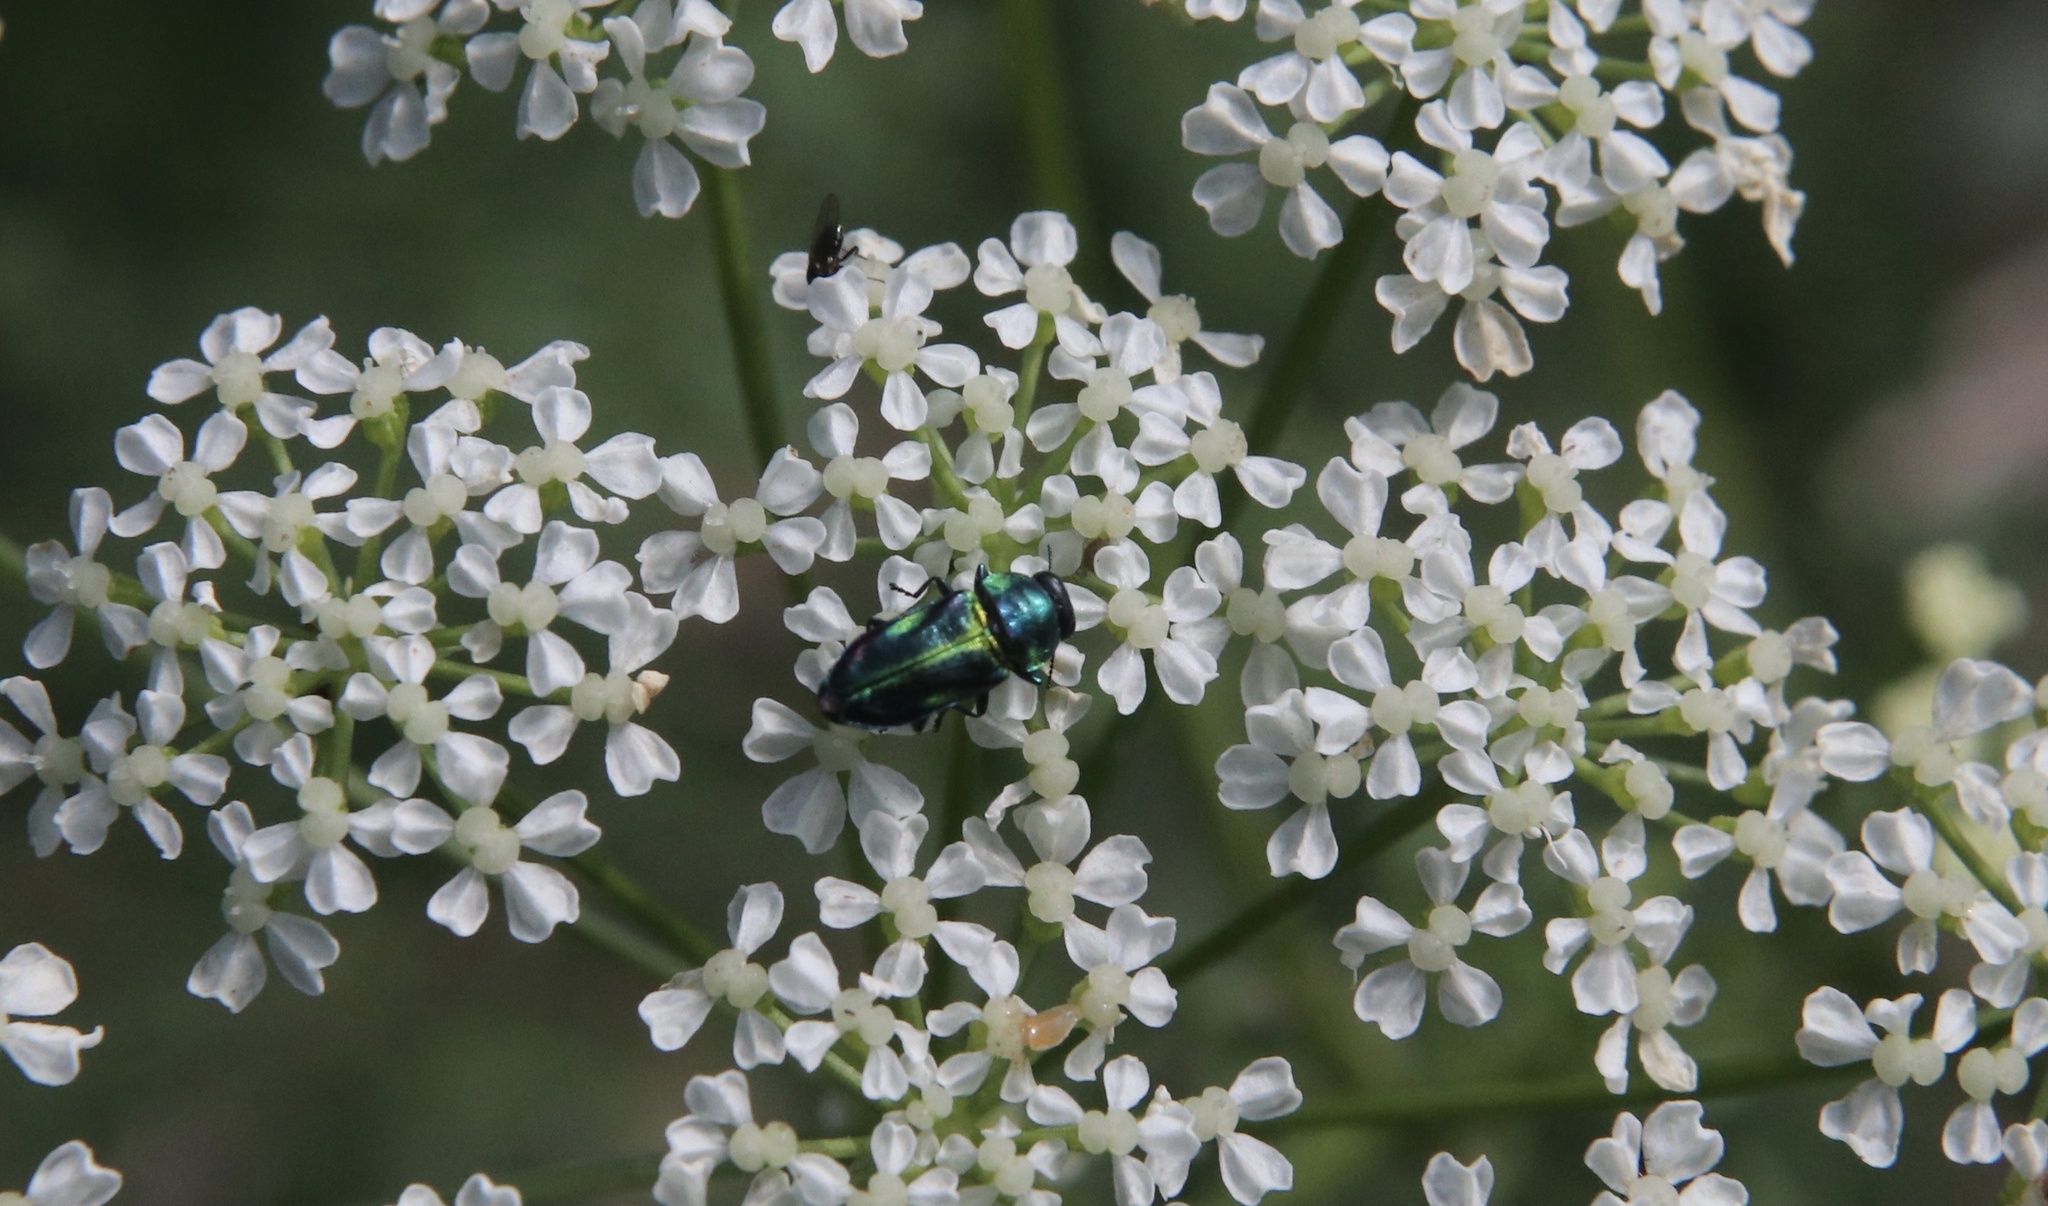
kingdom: Animalia
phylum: Arthropoda
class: Insecta
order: Coleoptera
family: Buprestidae
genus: Bilyaxia
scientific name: Bilyaxia concinna
